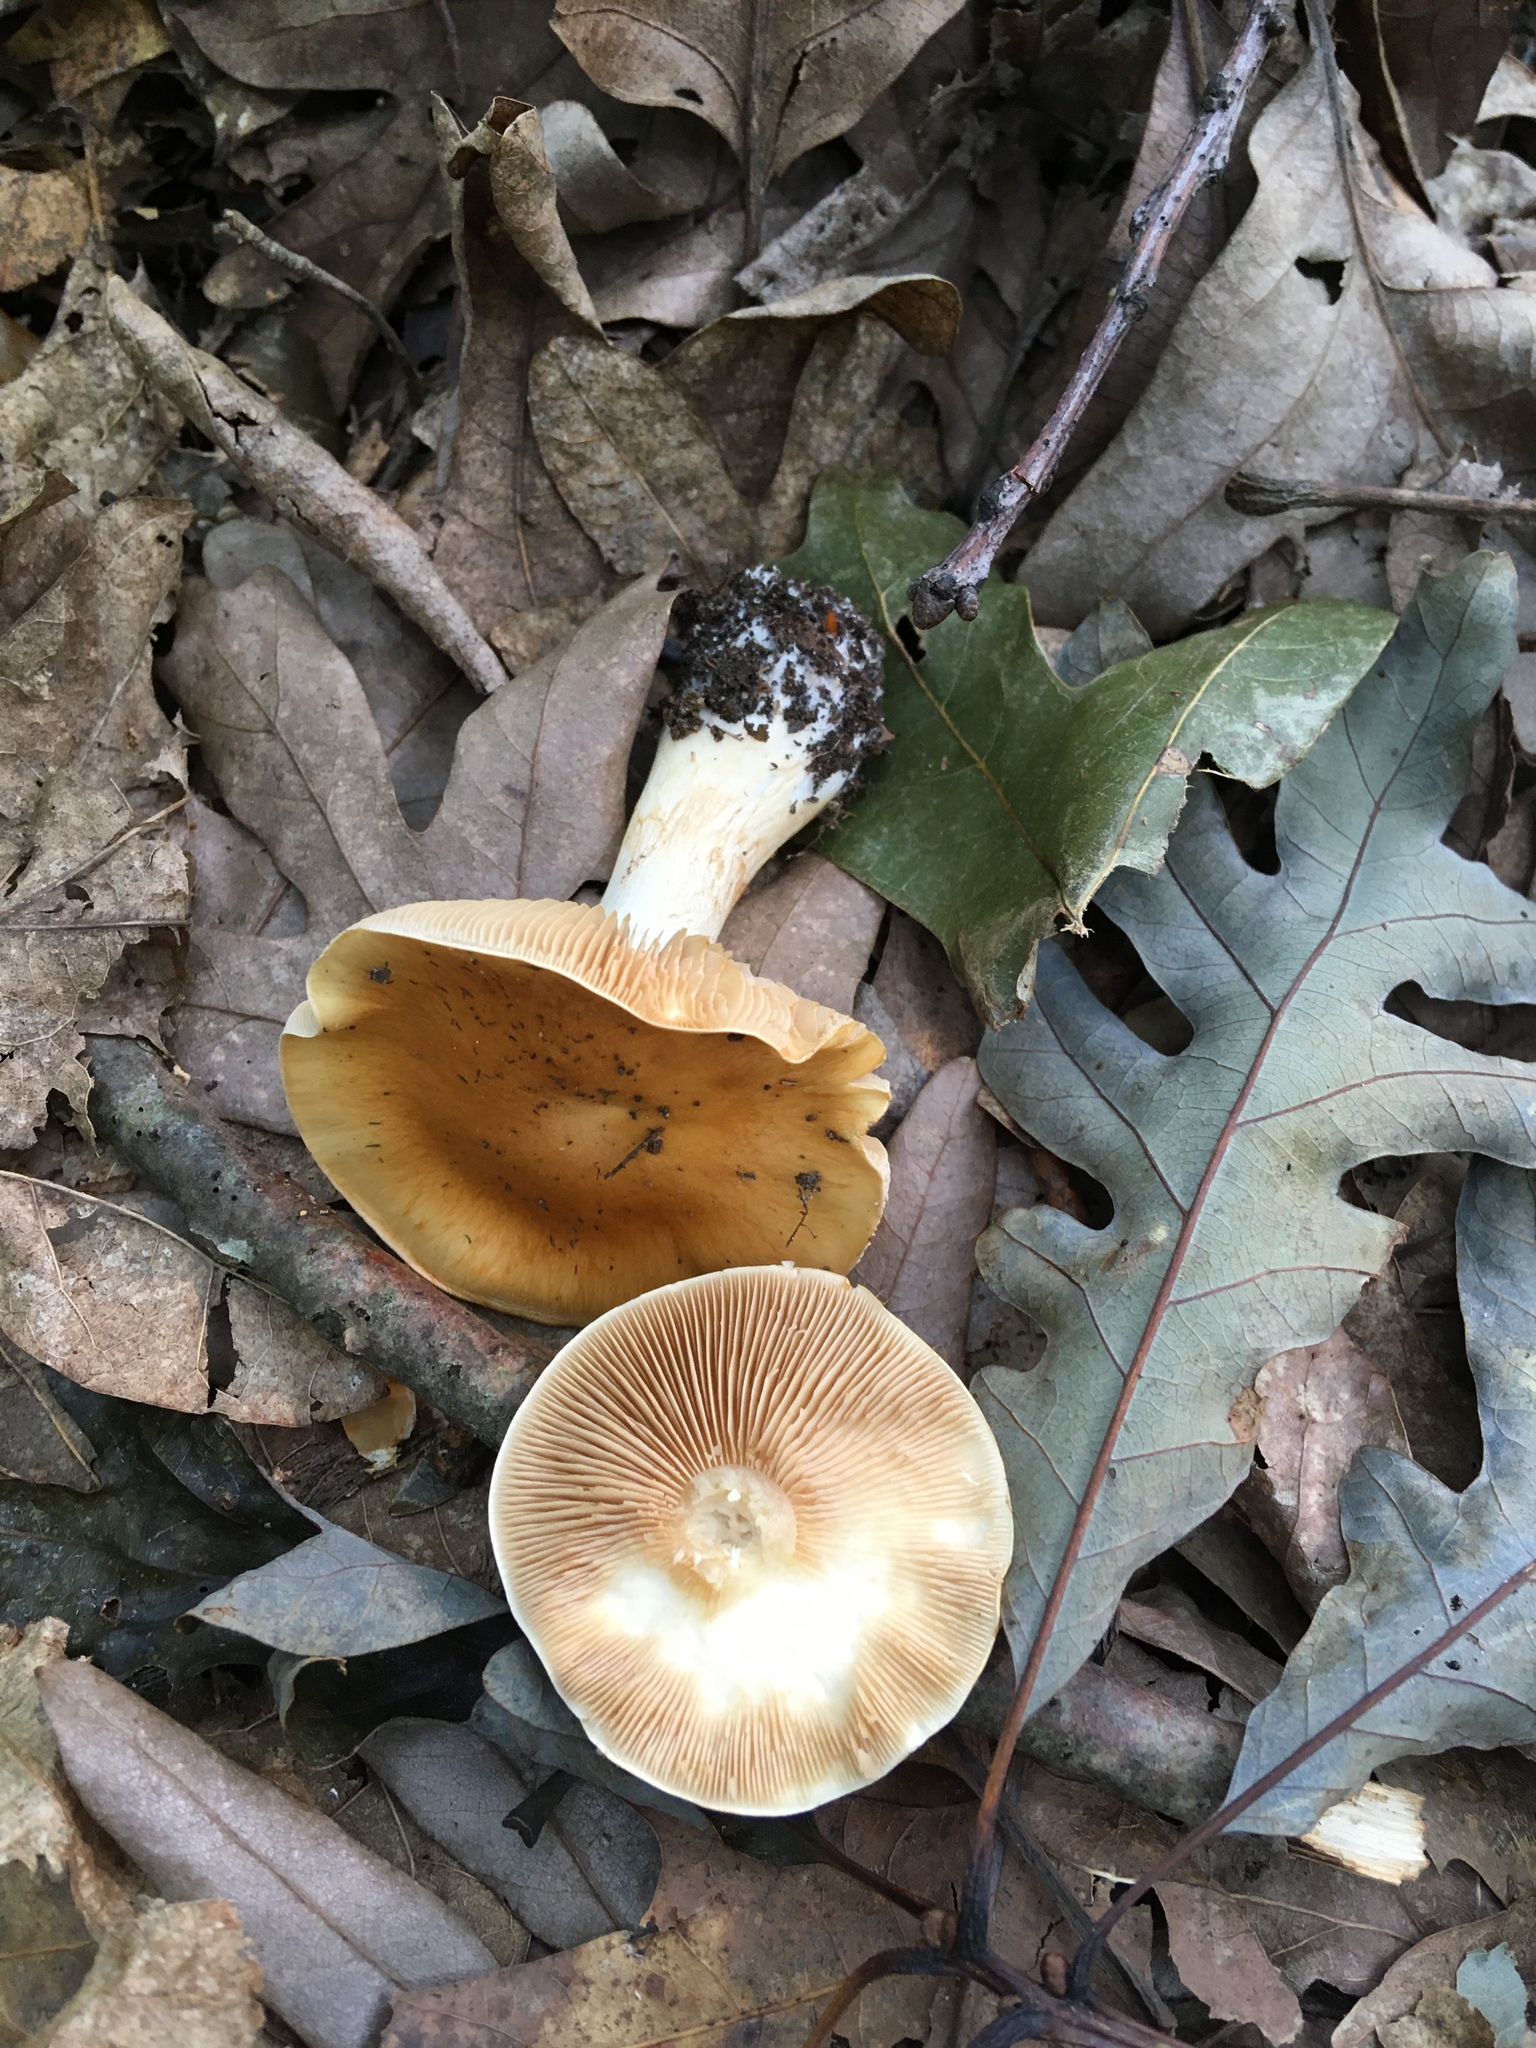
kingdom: Fungi
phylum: Basidiomycota
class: Agaricomycetes
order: Agaricales
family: Cortinariaceae
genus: Thaxterogaster
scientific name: Thaxterogaster vibratilis
